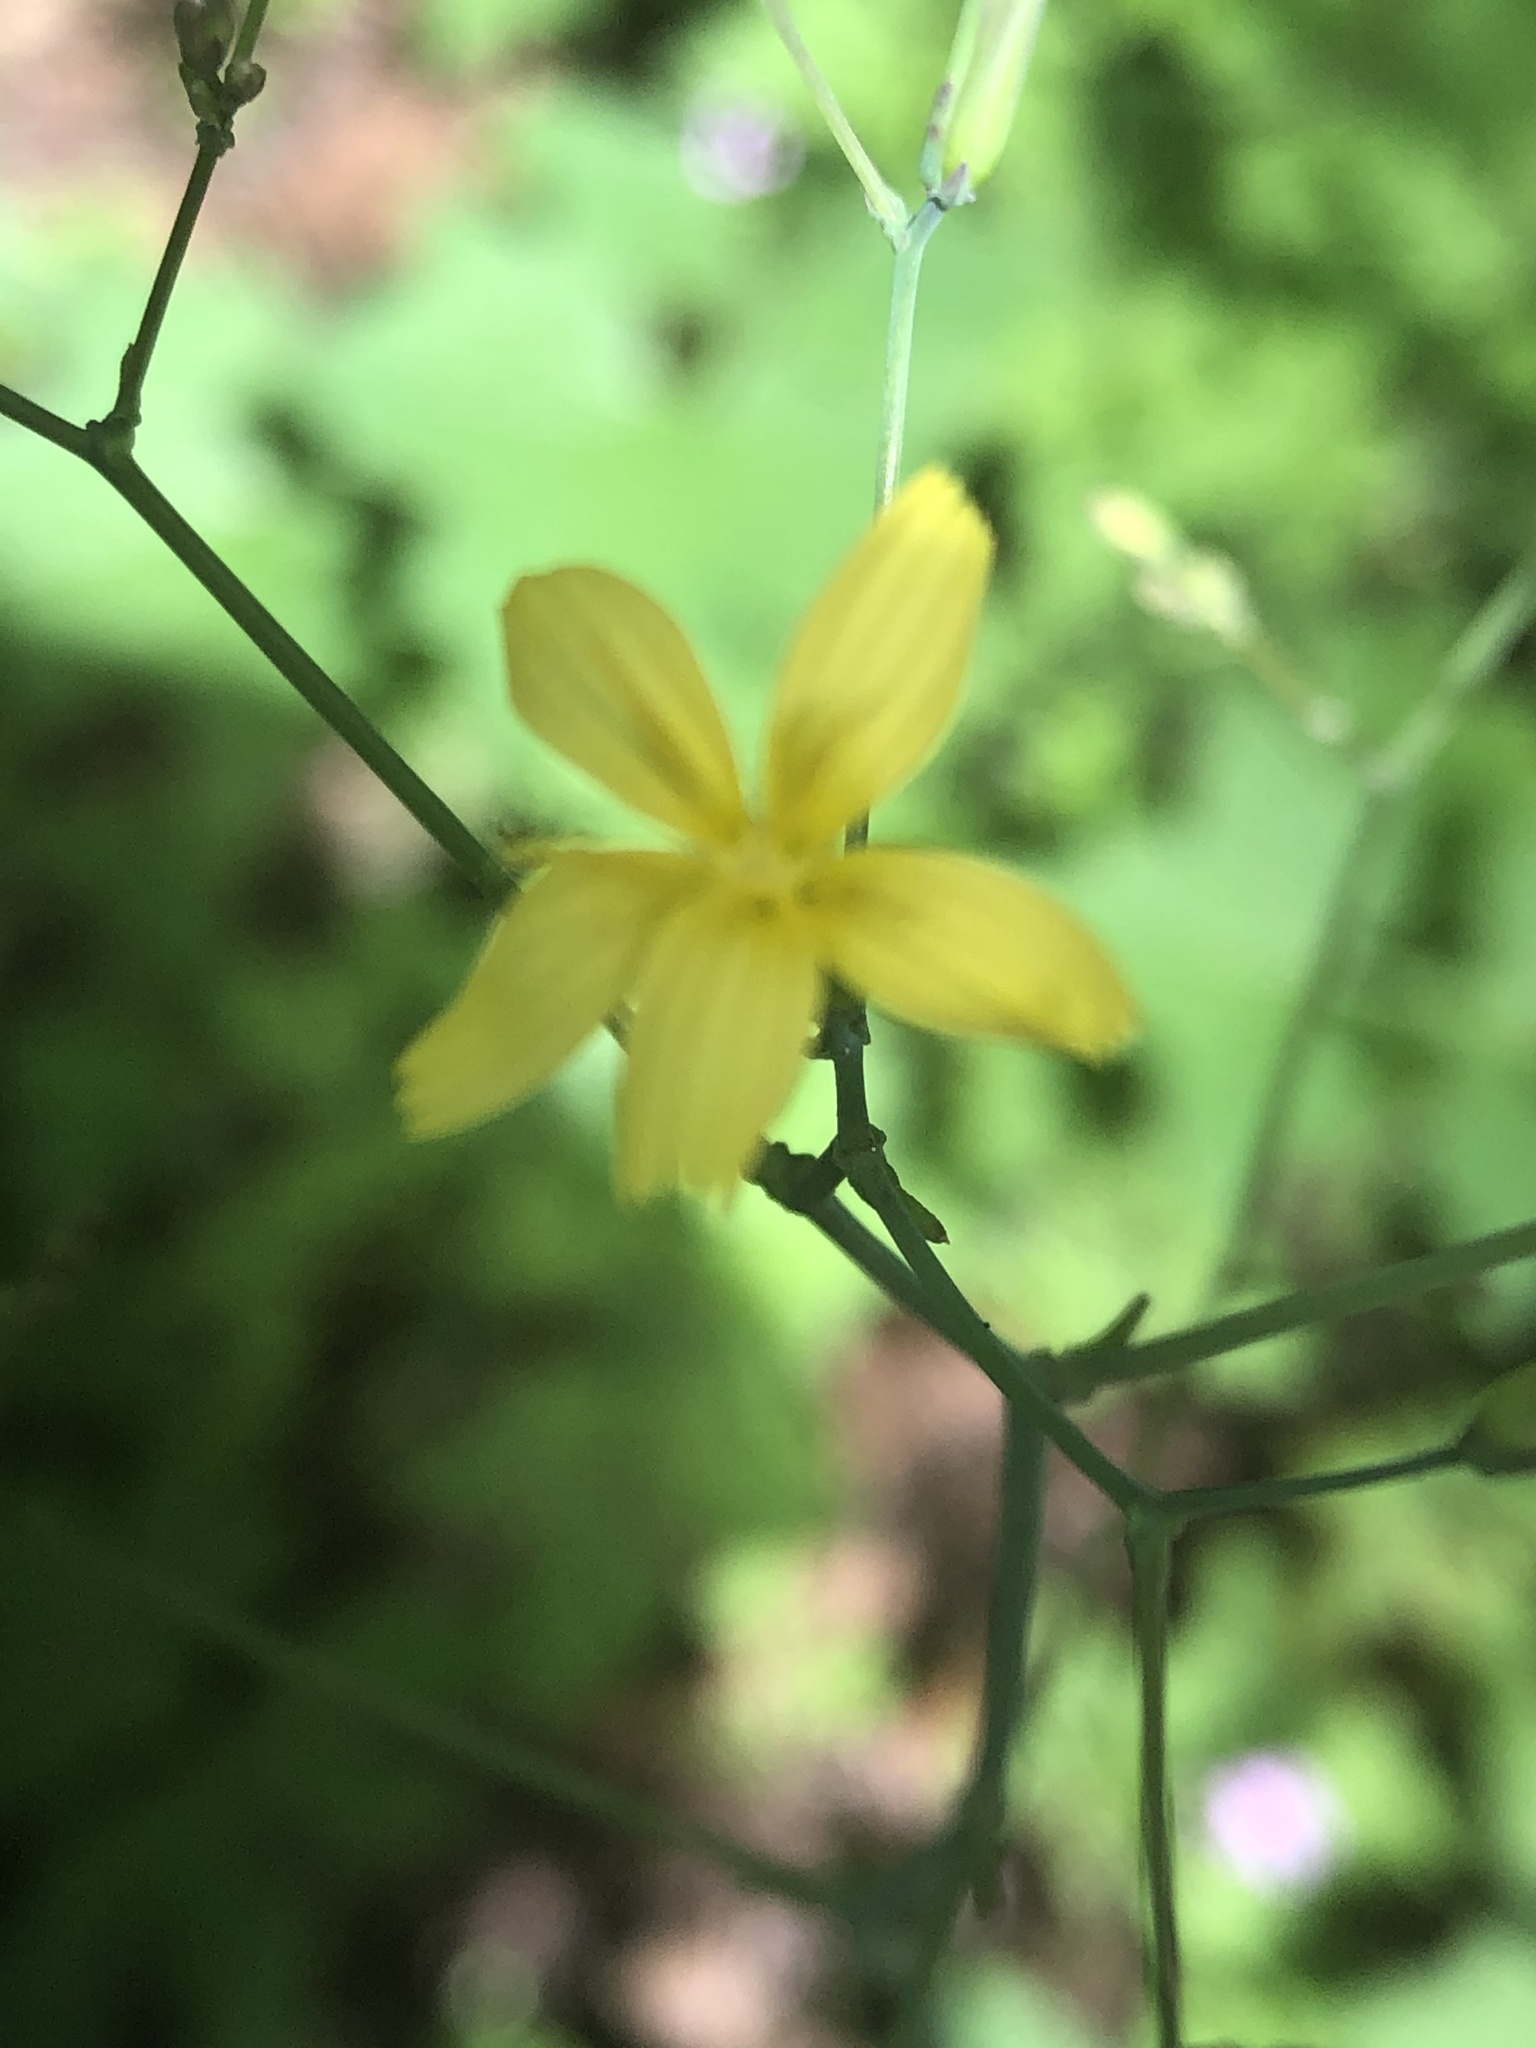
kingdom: Plantae
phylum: Tracheophyta
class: Magnoliopsida
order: Asterales
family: Asteraceae
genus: Mycelis
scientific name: Mycelis muralis
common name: Wall lettuce
